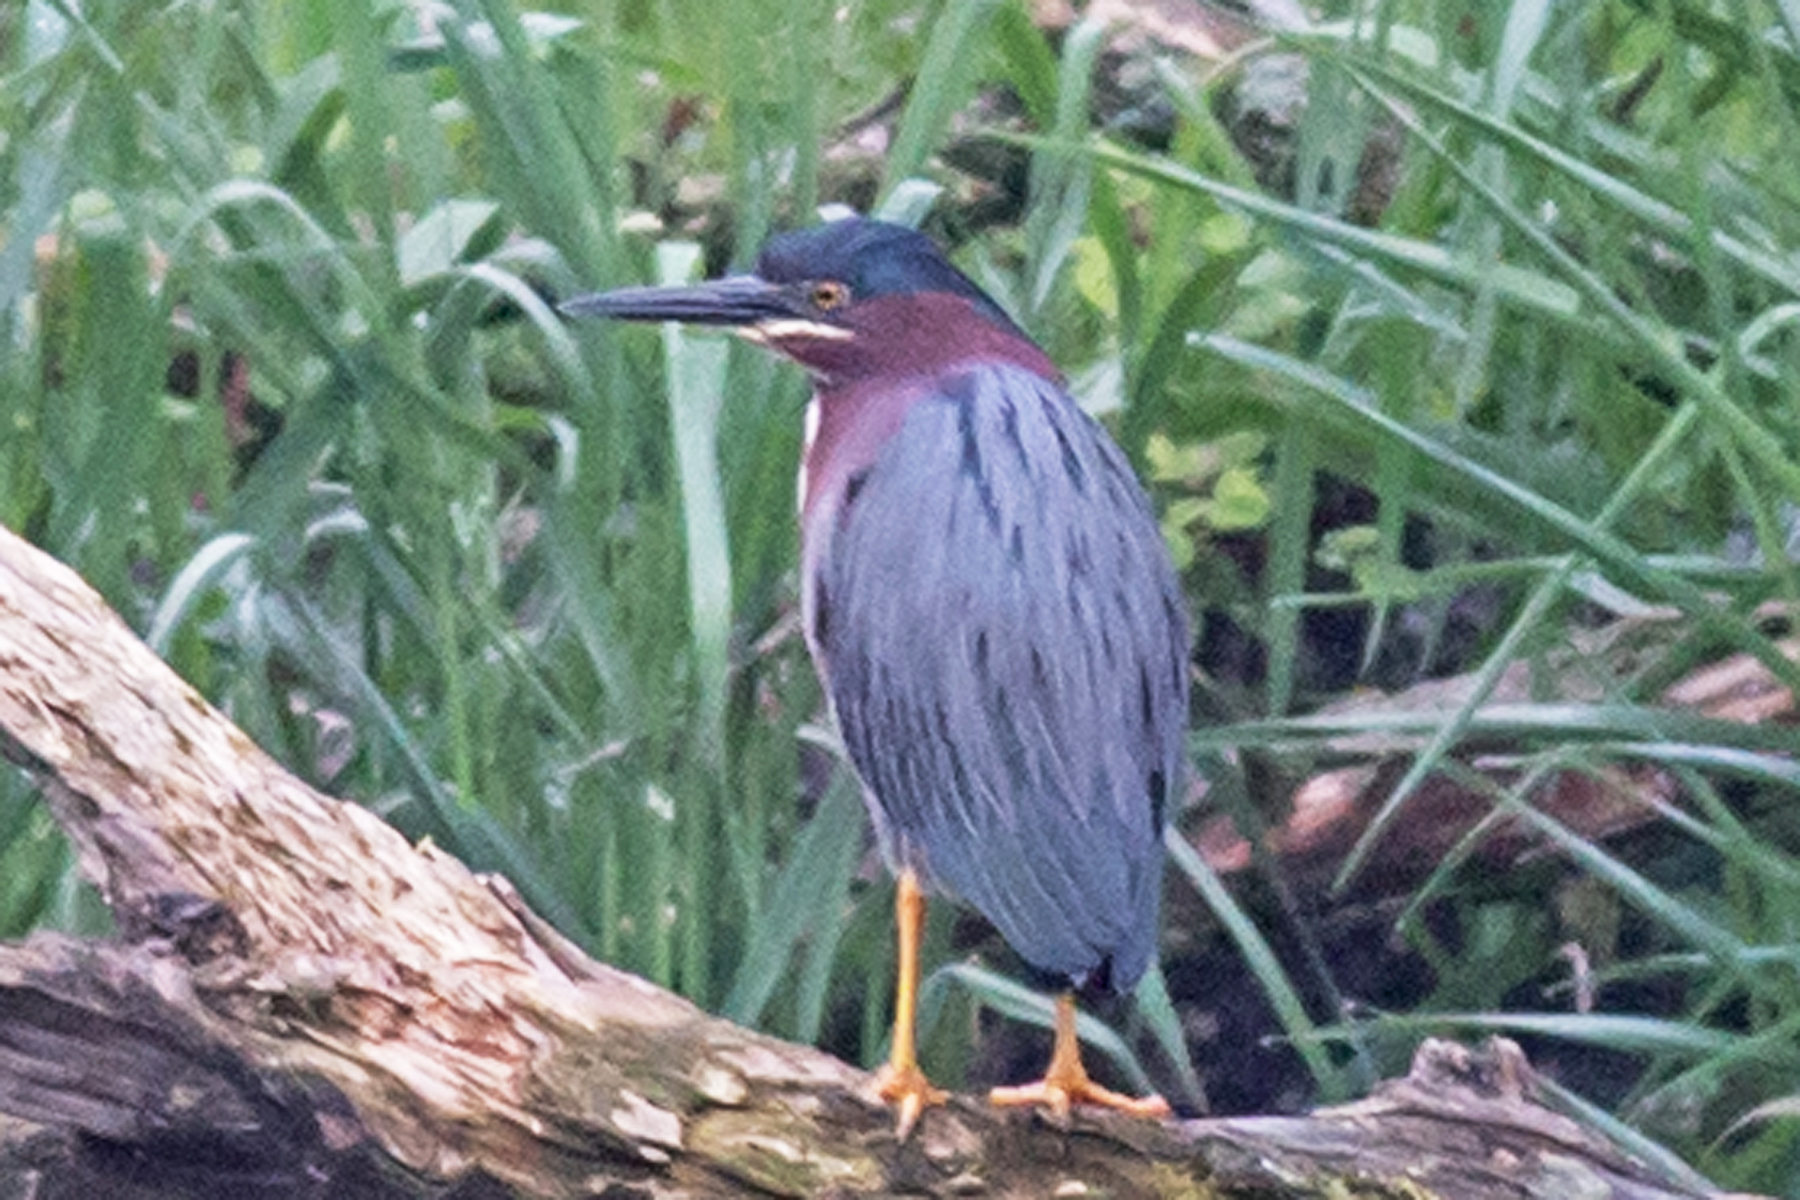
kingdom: Animalia
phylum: Chordata
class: Aves
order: Pelecaniformes
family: Ardeidae
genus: Butorides
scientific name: Butorides virescens
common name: Green heron
